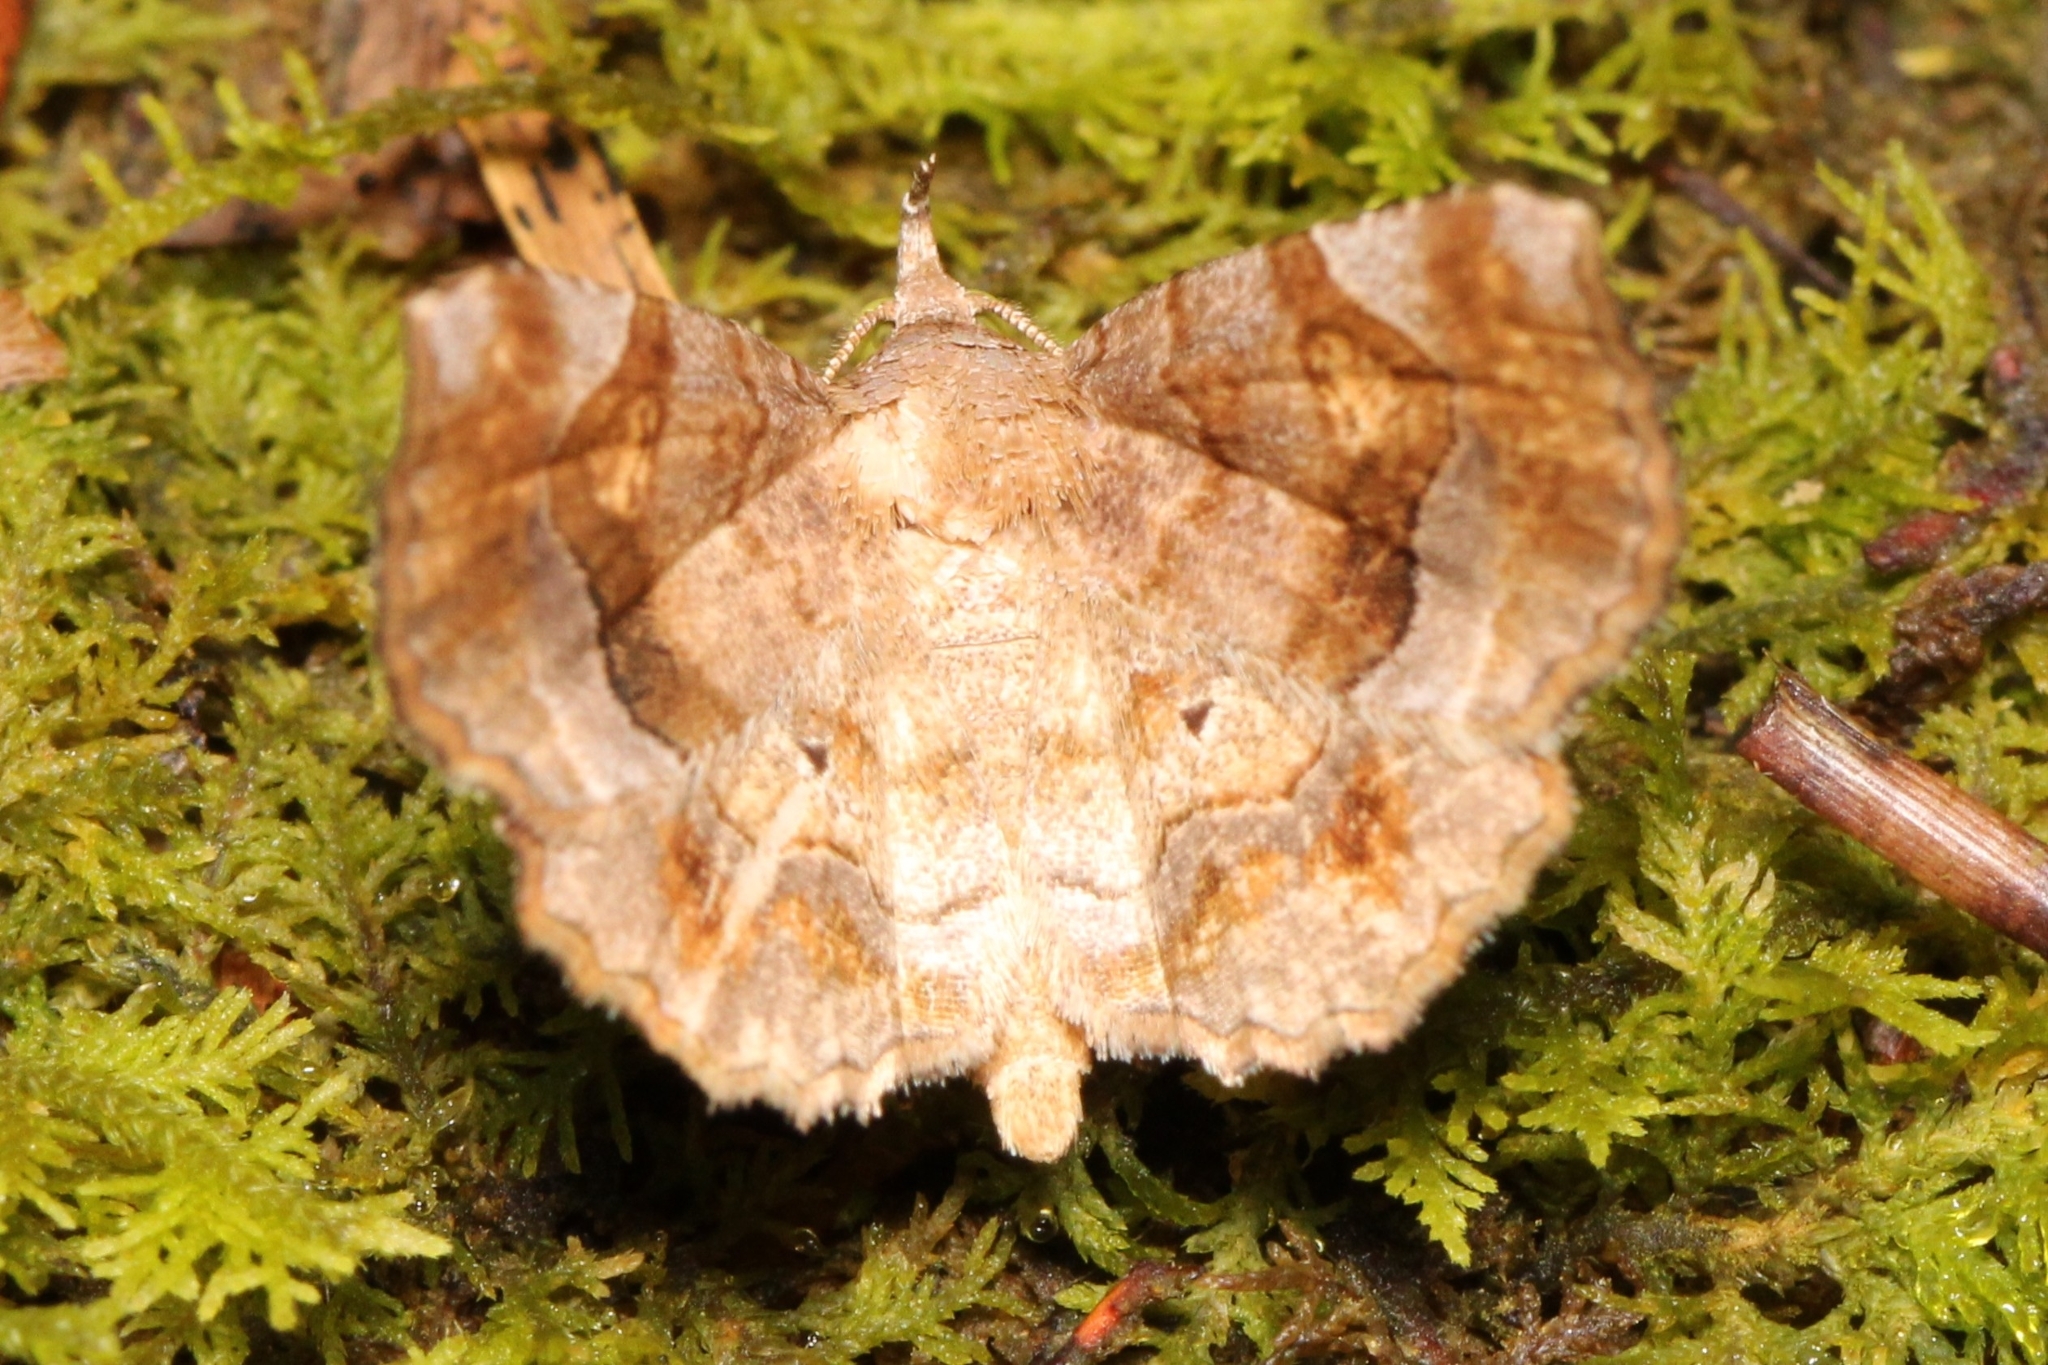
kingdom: Animalia
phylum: Arthropoda
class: Insecta
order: Lepidoptera
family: Erebidae
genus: Pangrapta
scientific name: Pangrapta decoralis
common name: Decorated owlet
